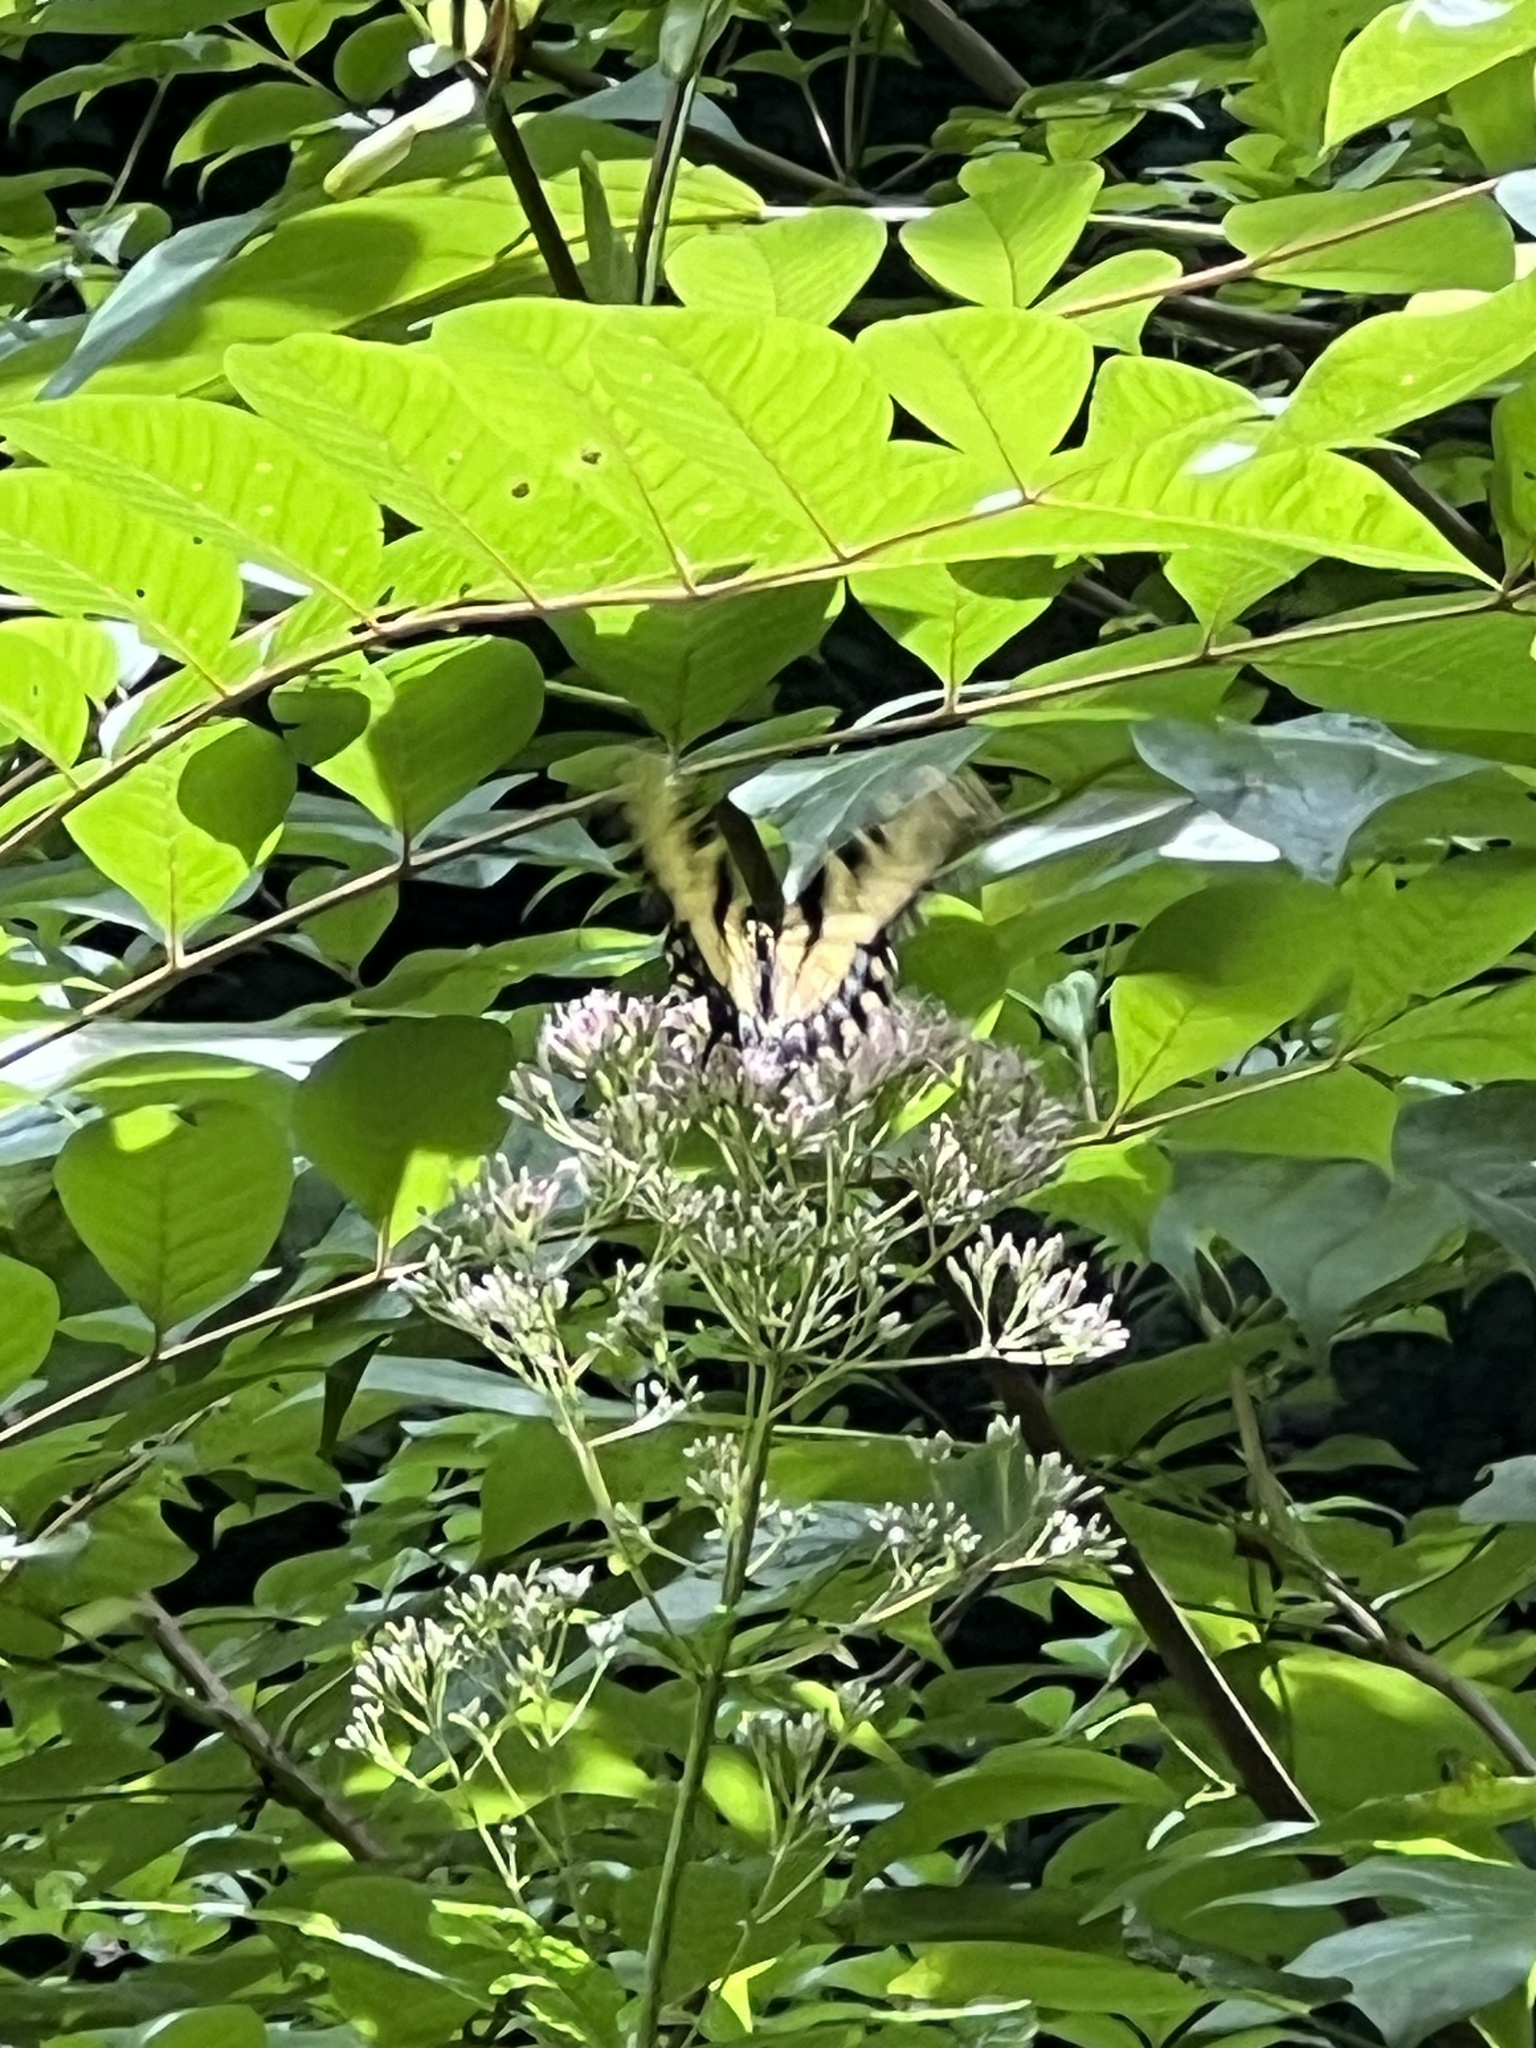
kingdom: Animalia
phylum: Arthropoda
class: Insecta
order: Lepidoptera
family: Papilionidae
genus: Papilio
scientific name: Papilio glaucus
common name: Tiger swallowtail
